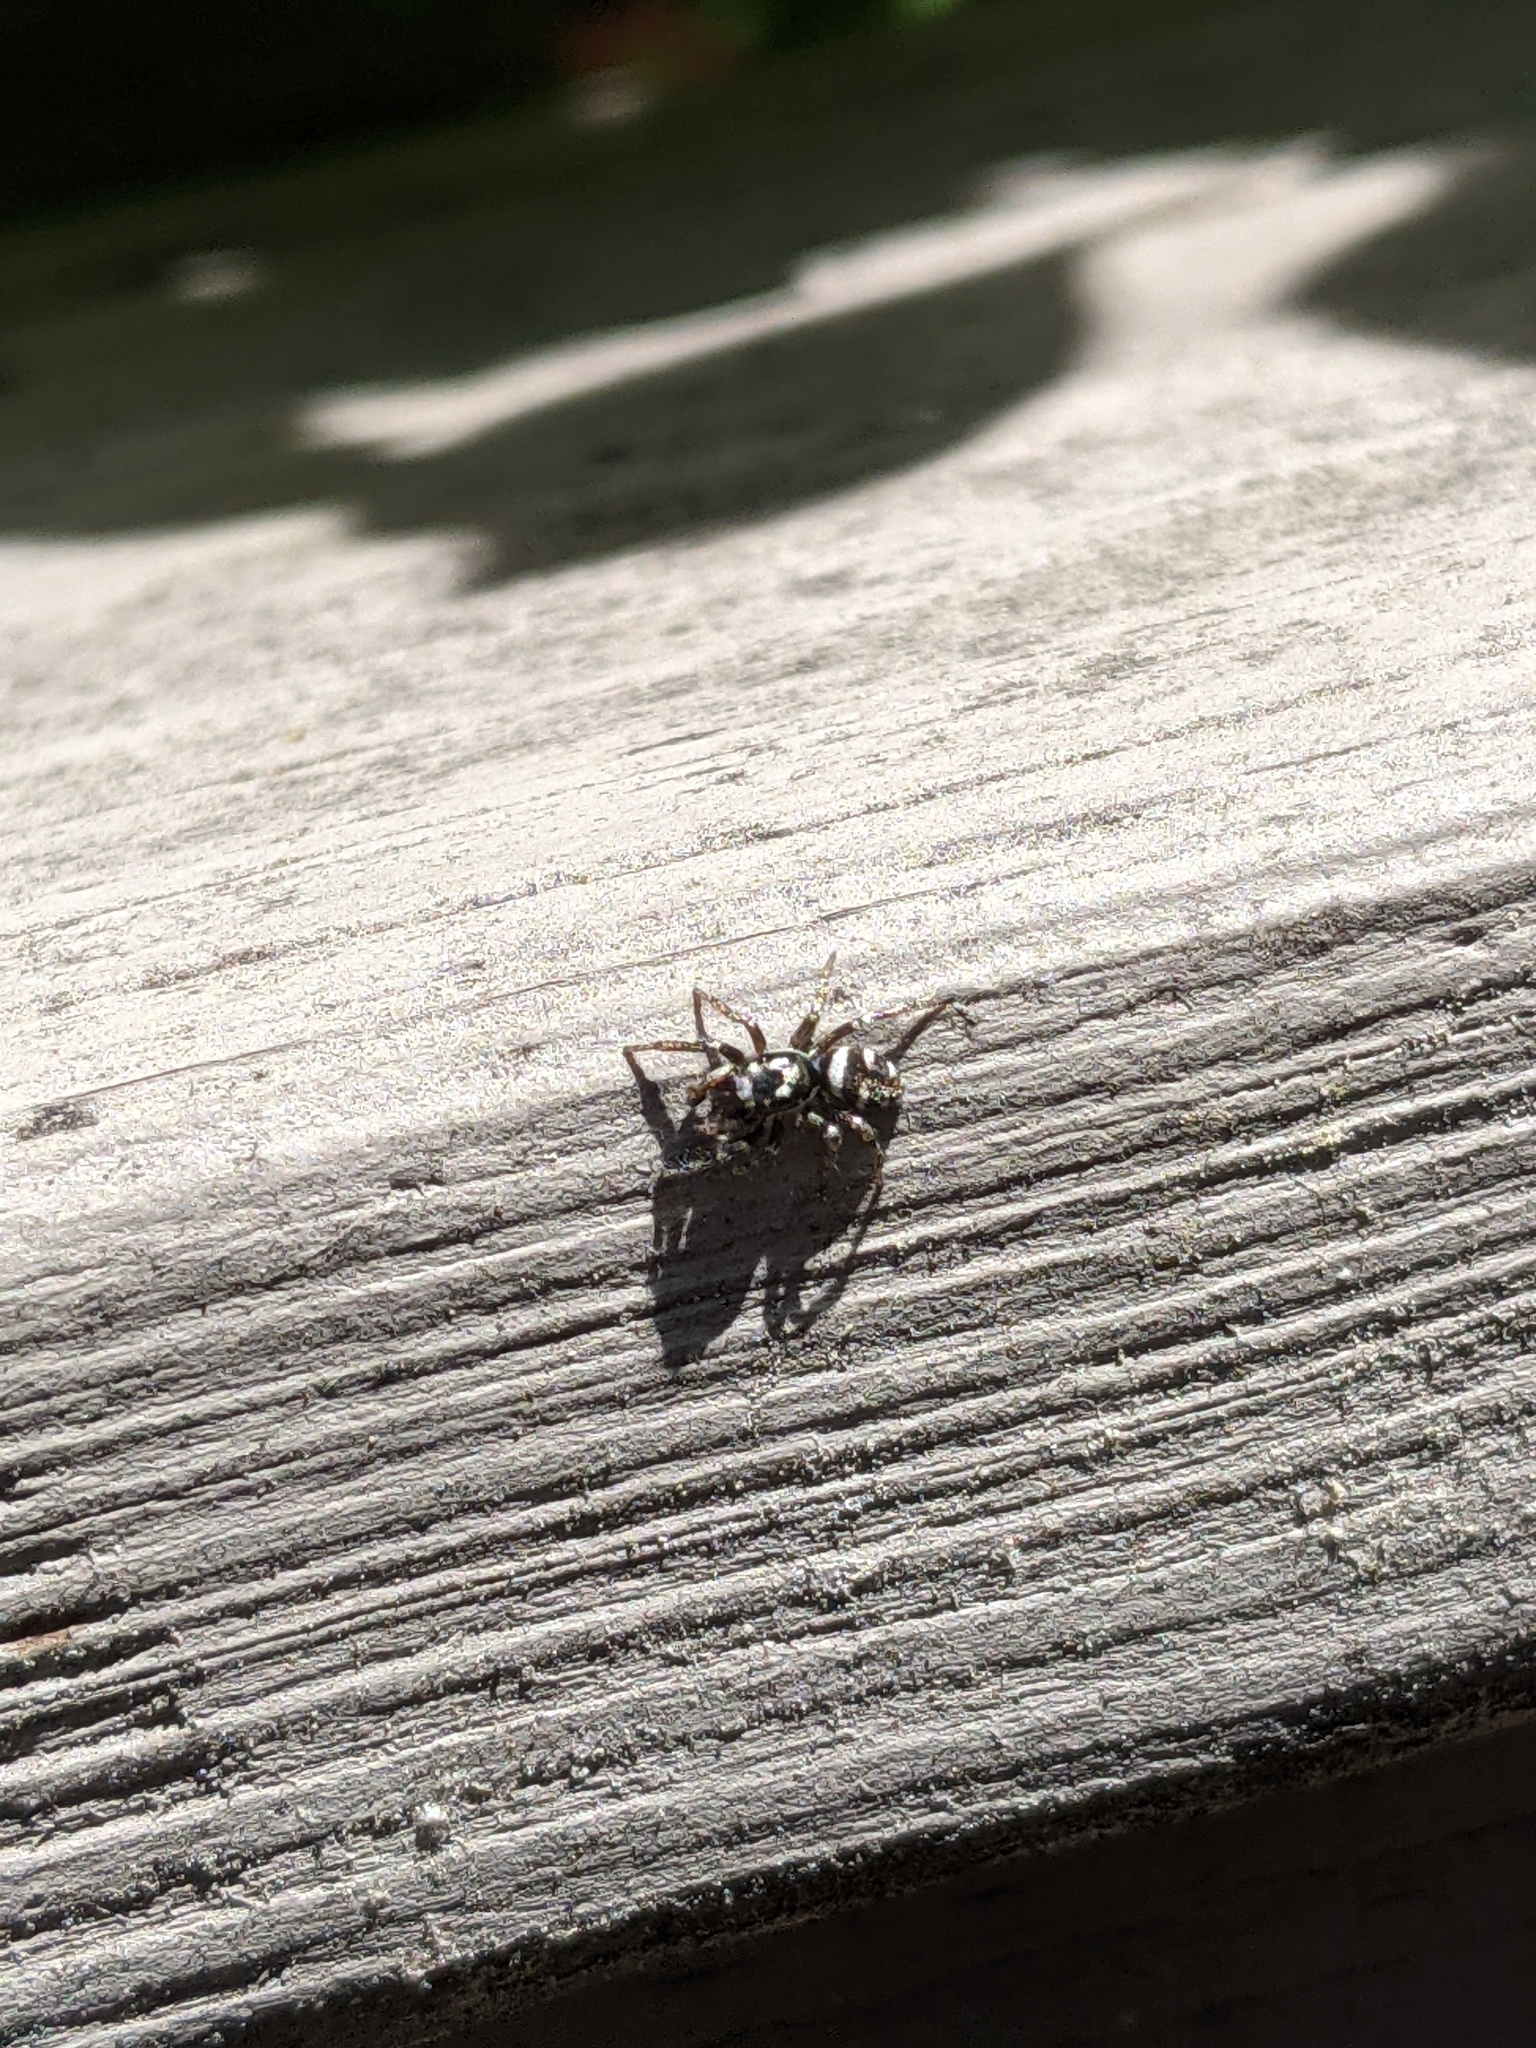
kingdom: Animalia
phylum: Arthropoda
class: Arachnida
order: Araneae
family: Salticidae
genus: Salticus
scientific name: Salticus scenicus
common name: Zebra jumper
